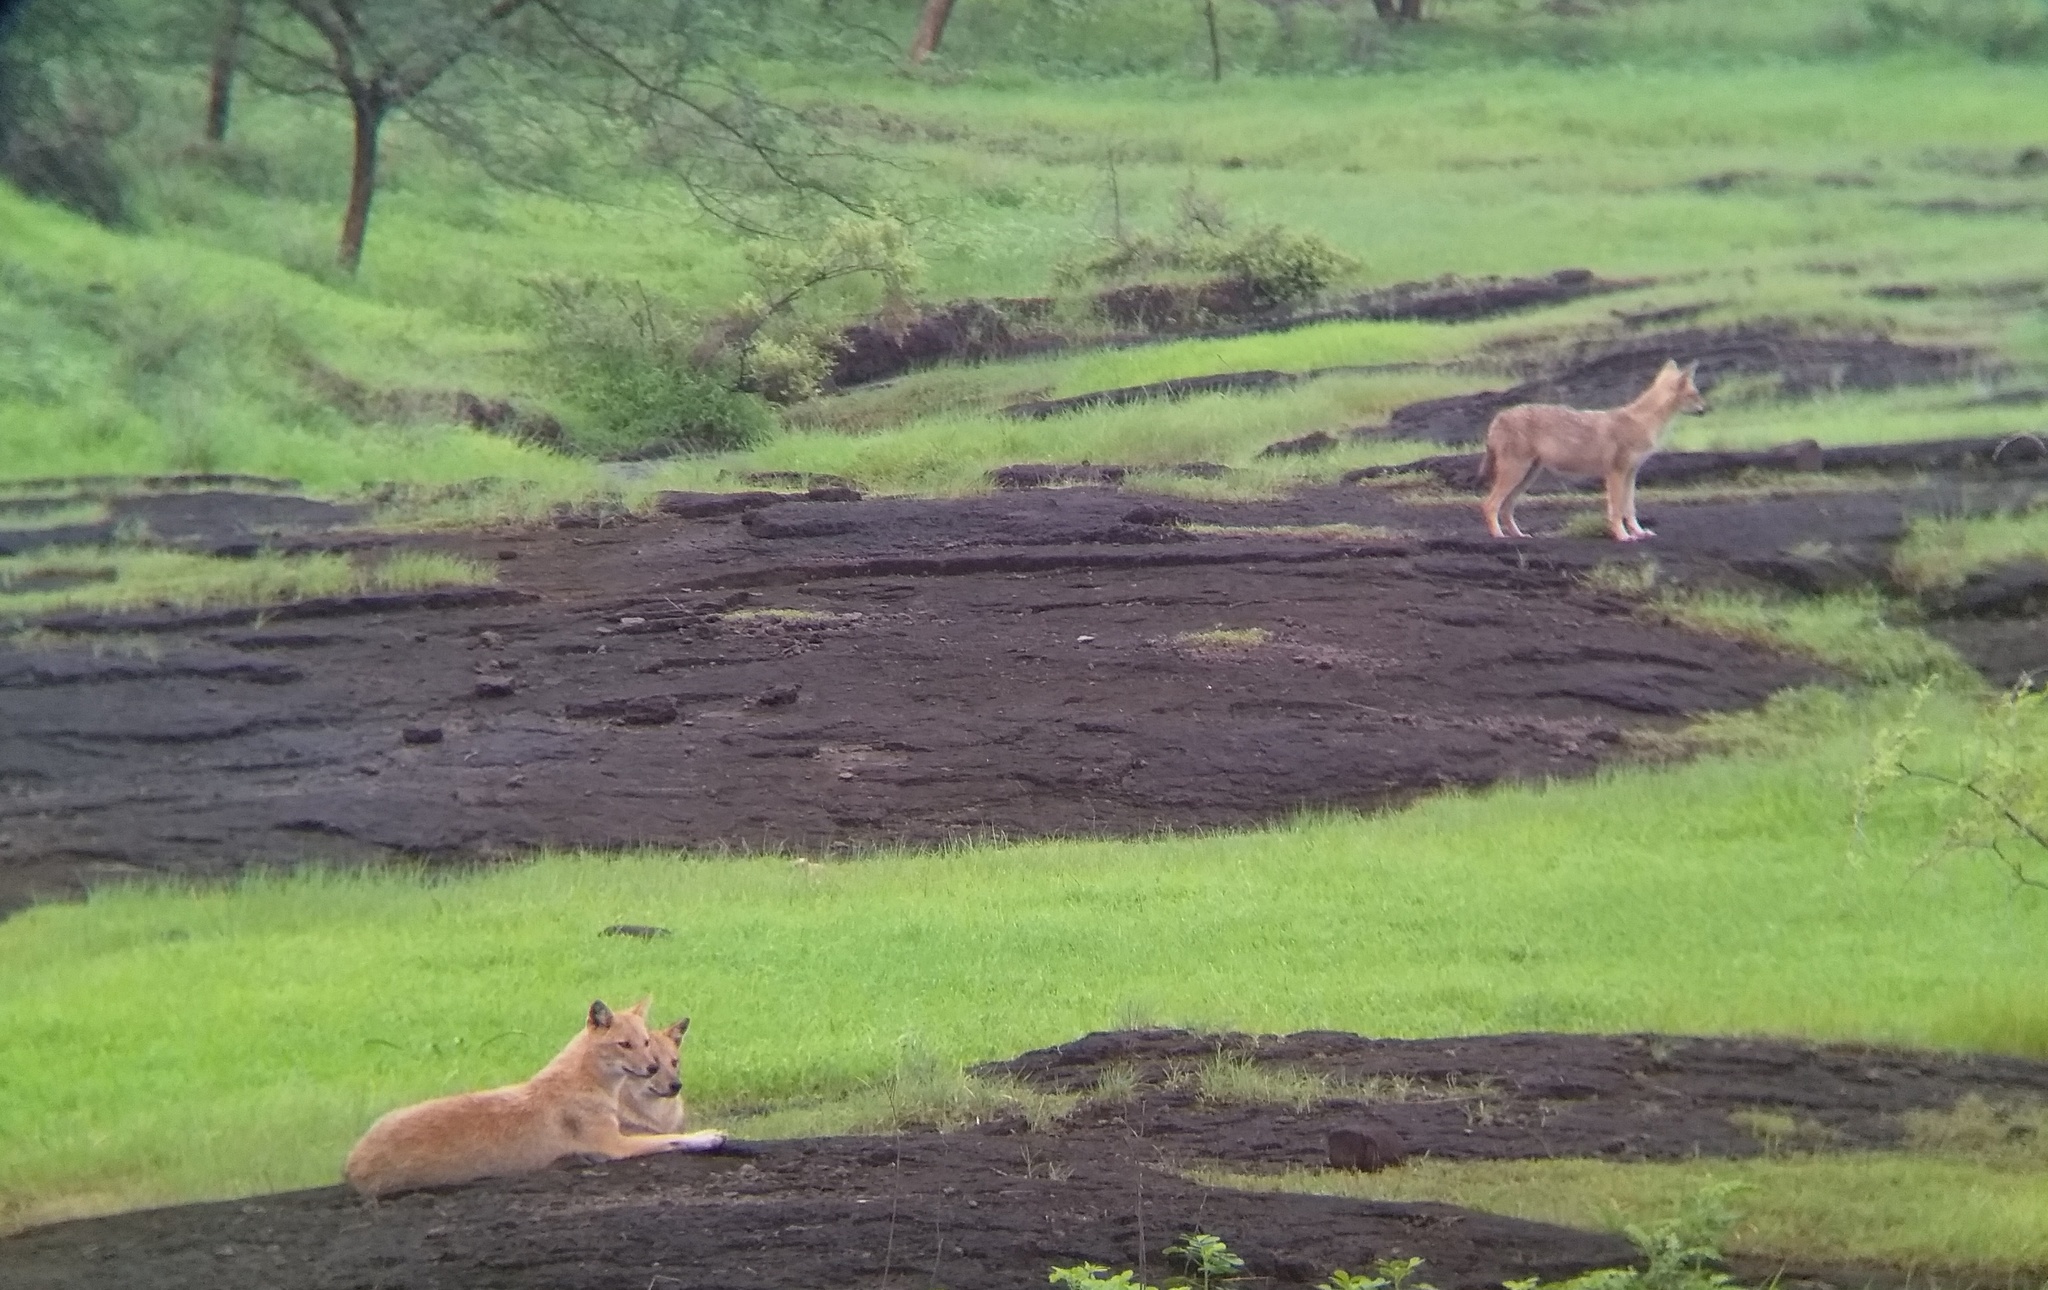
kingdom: Animalia
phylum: Chordata
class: Mammalia
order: Carnivora
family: Canidae
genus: Canis
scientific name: Canis aureus
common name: Golden jackal
